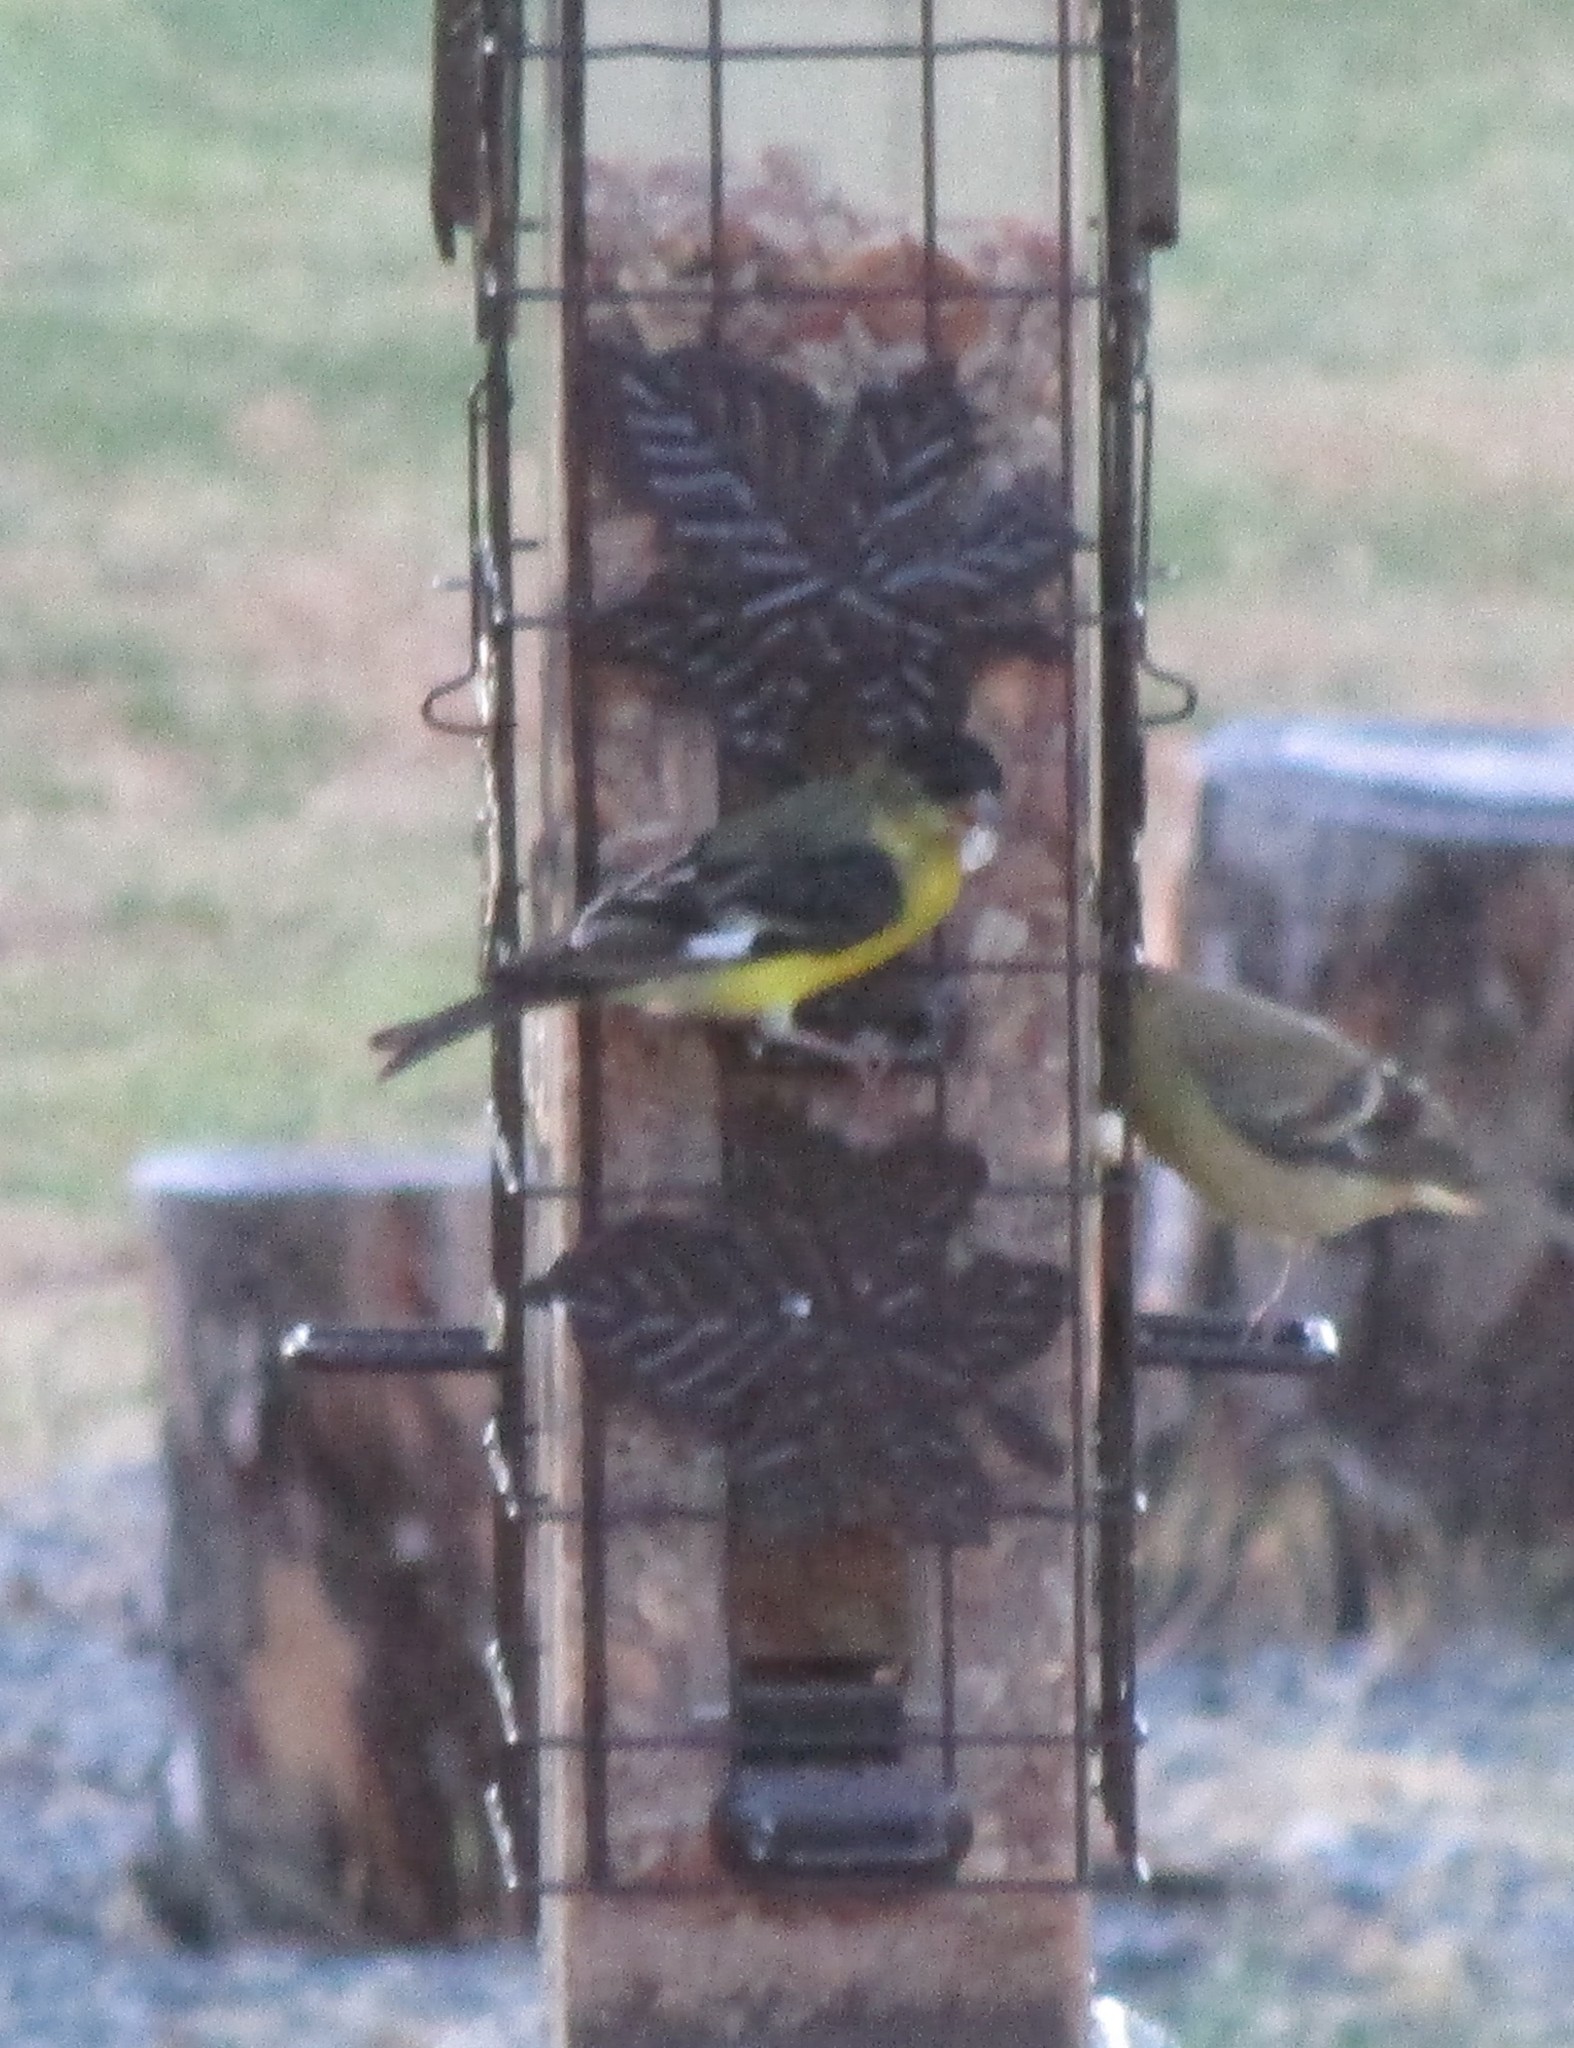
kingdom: Animalia
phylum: Chordata
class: Aves
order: Passeriformes
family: Fringillidae
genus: Spinus
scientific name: Spinus psaltria
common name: Lesser goldfinch
